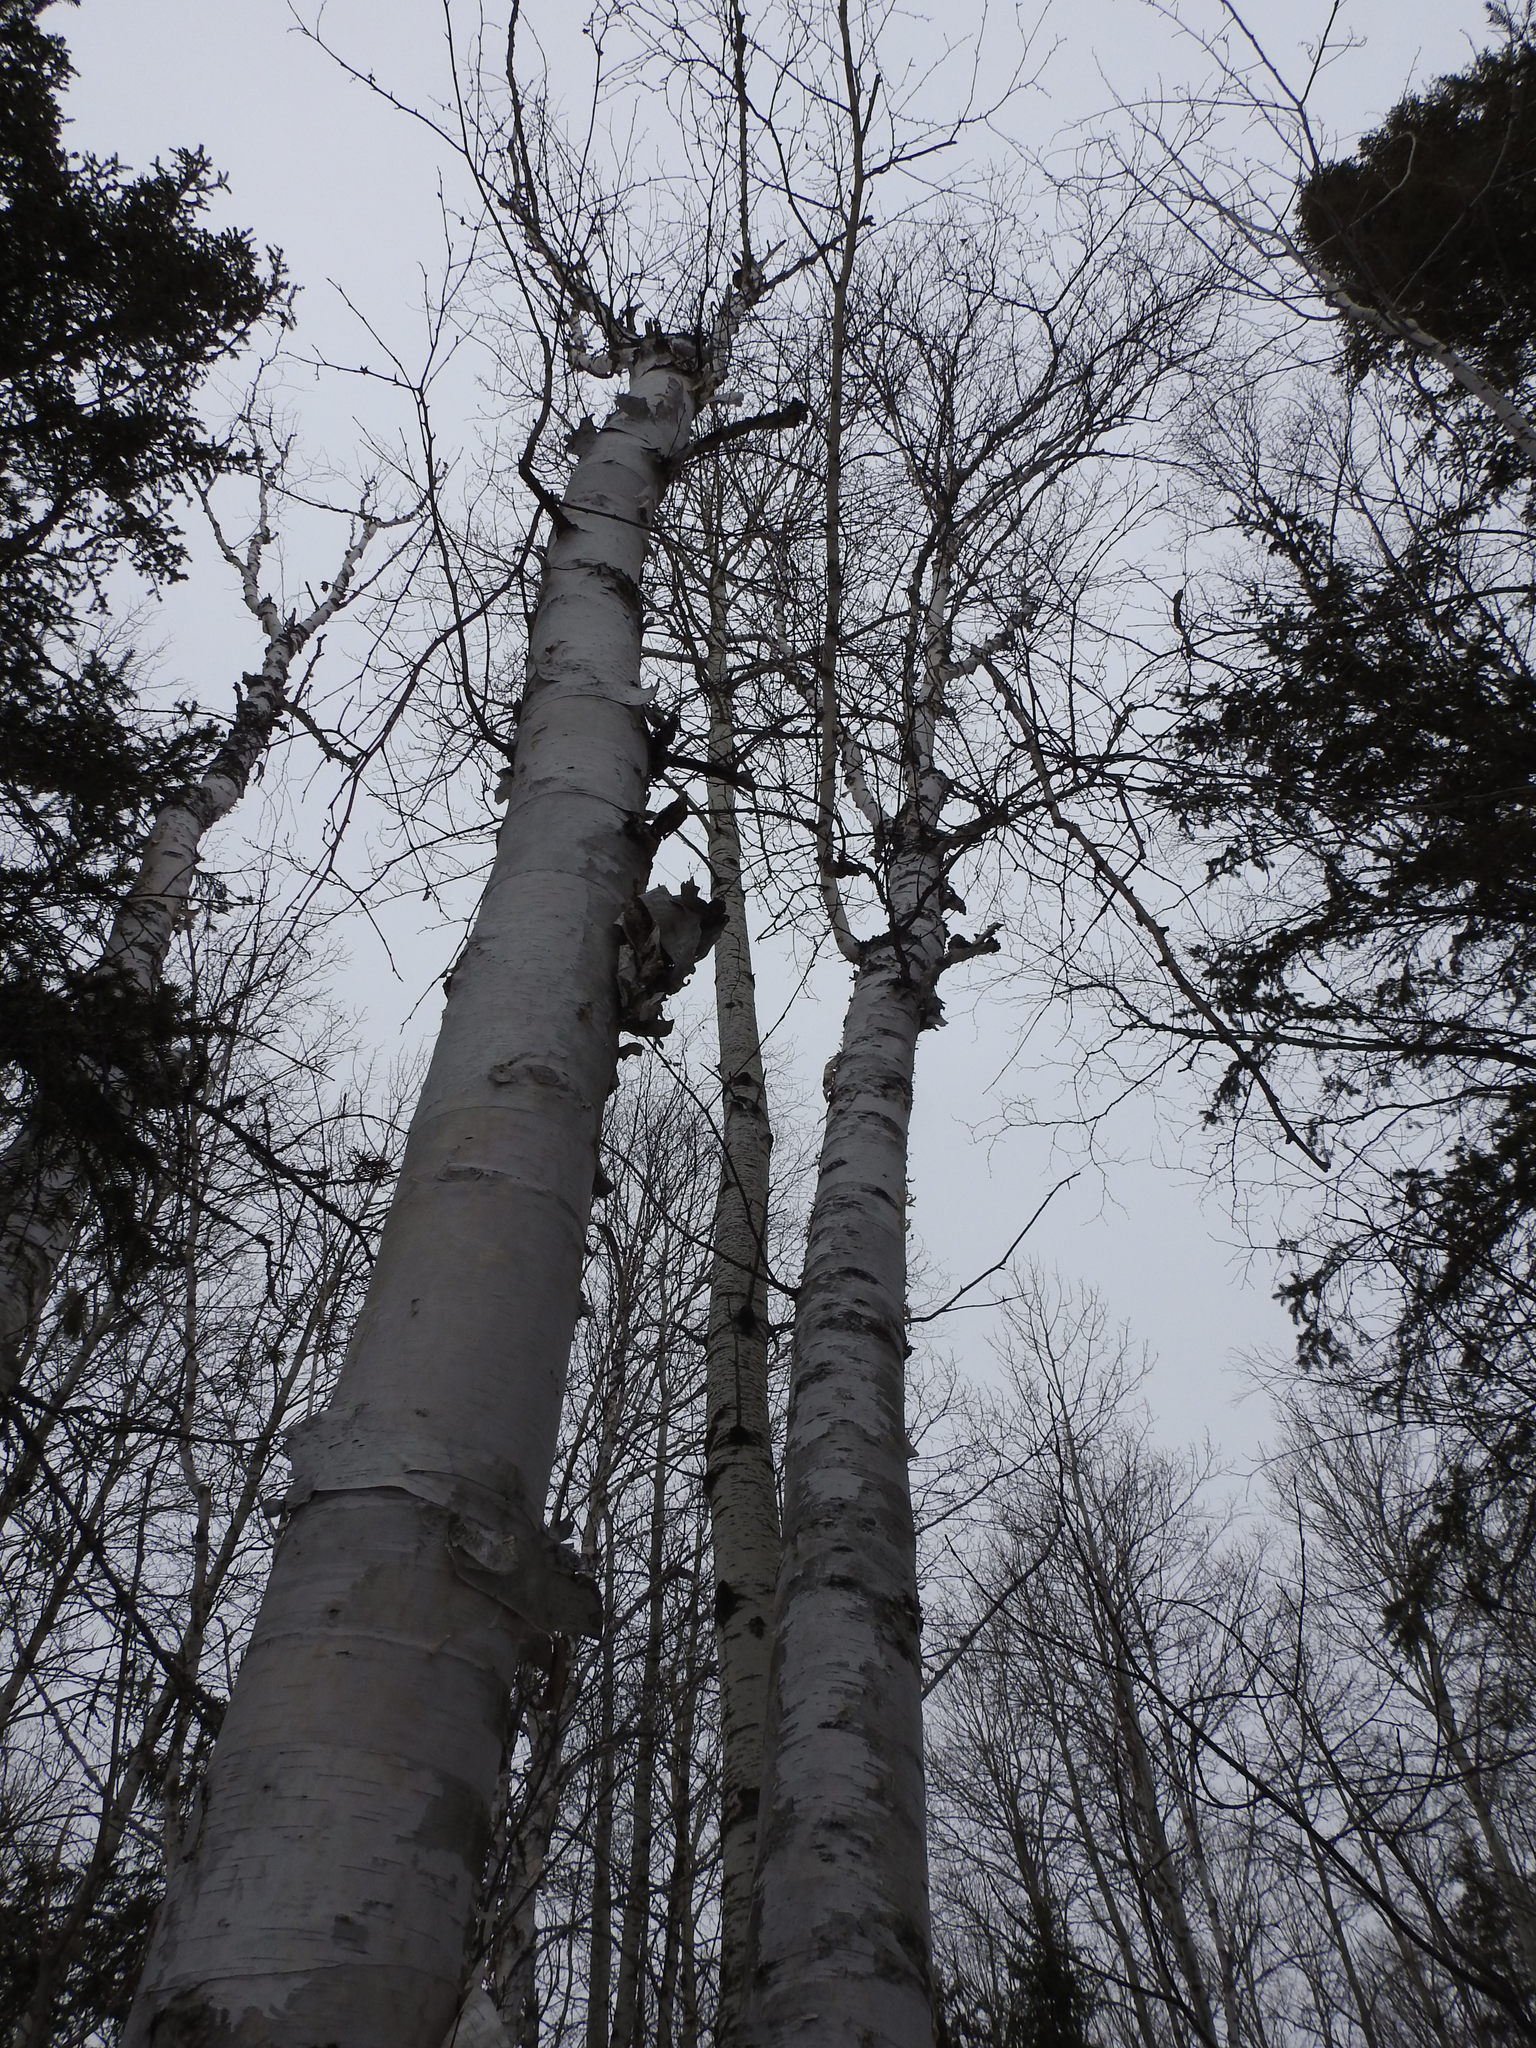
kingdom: Plantae
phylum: Tracheophyta
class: Magnoliopsida
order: Fagales
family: Betulaceae
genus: Betula
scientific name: Betula papyrifera
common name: Paper birch
